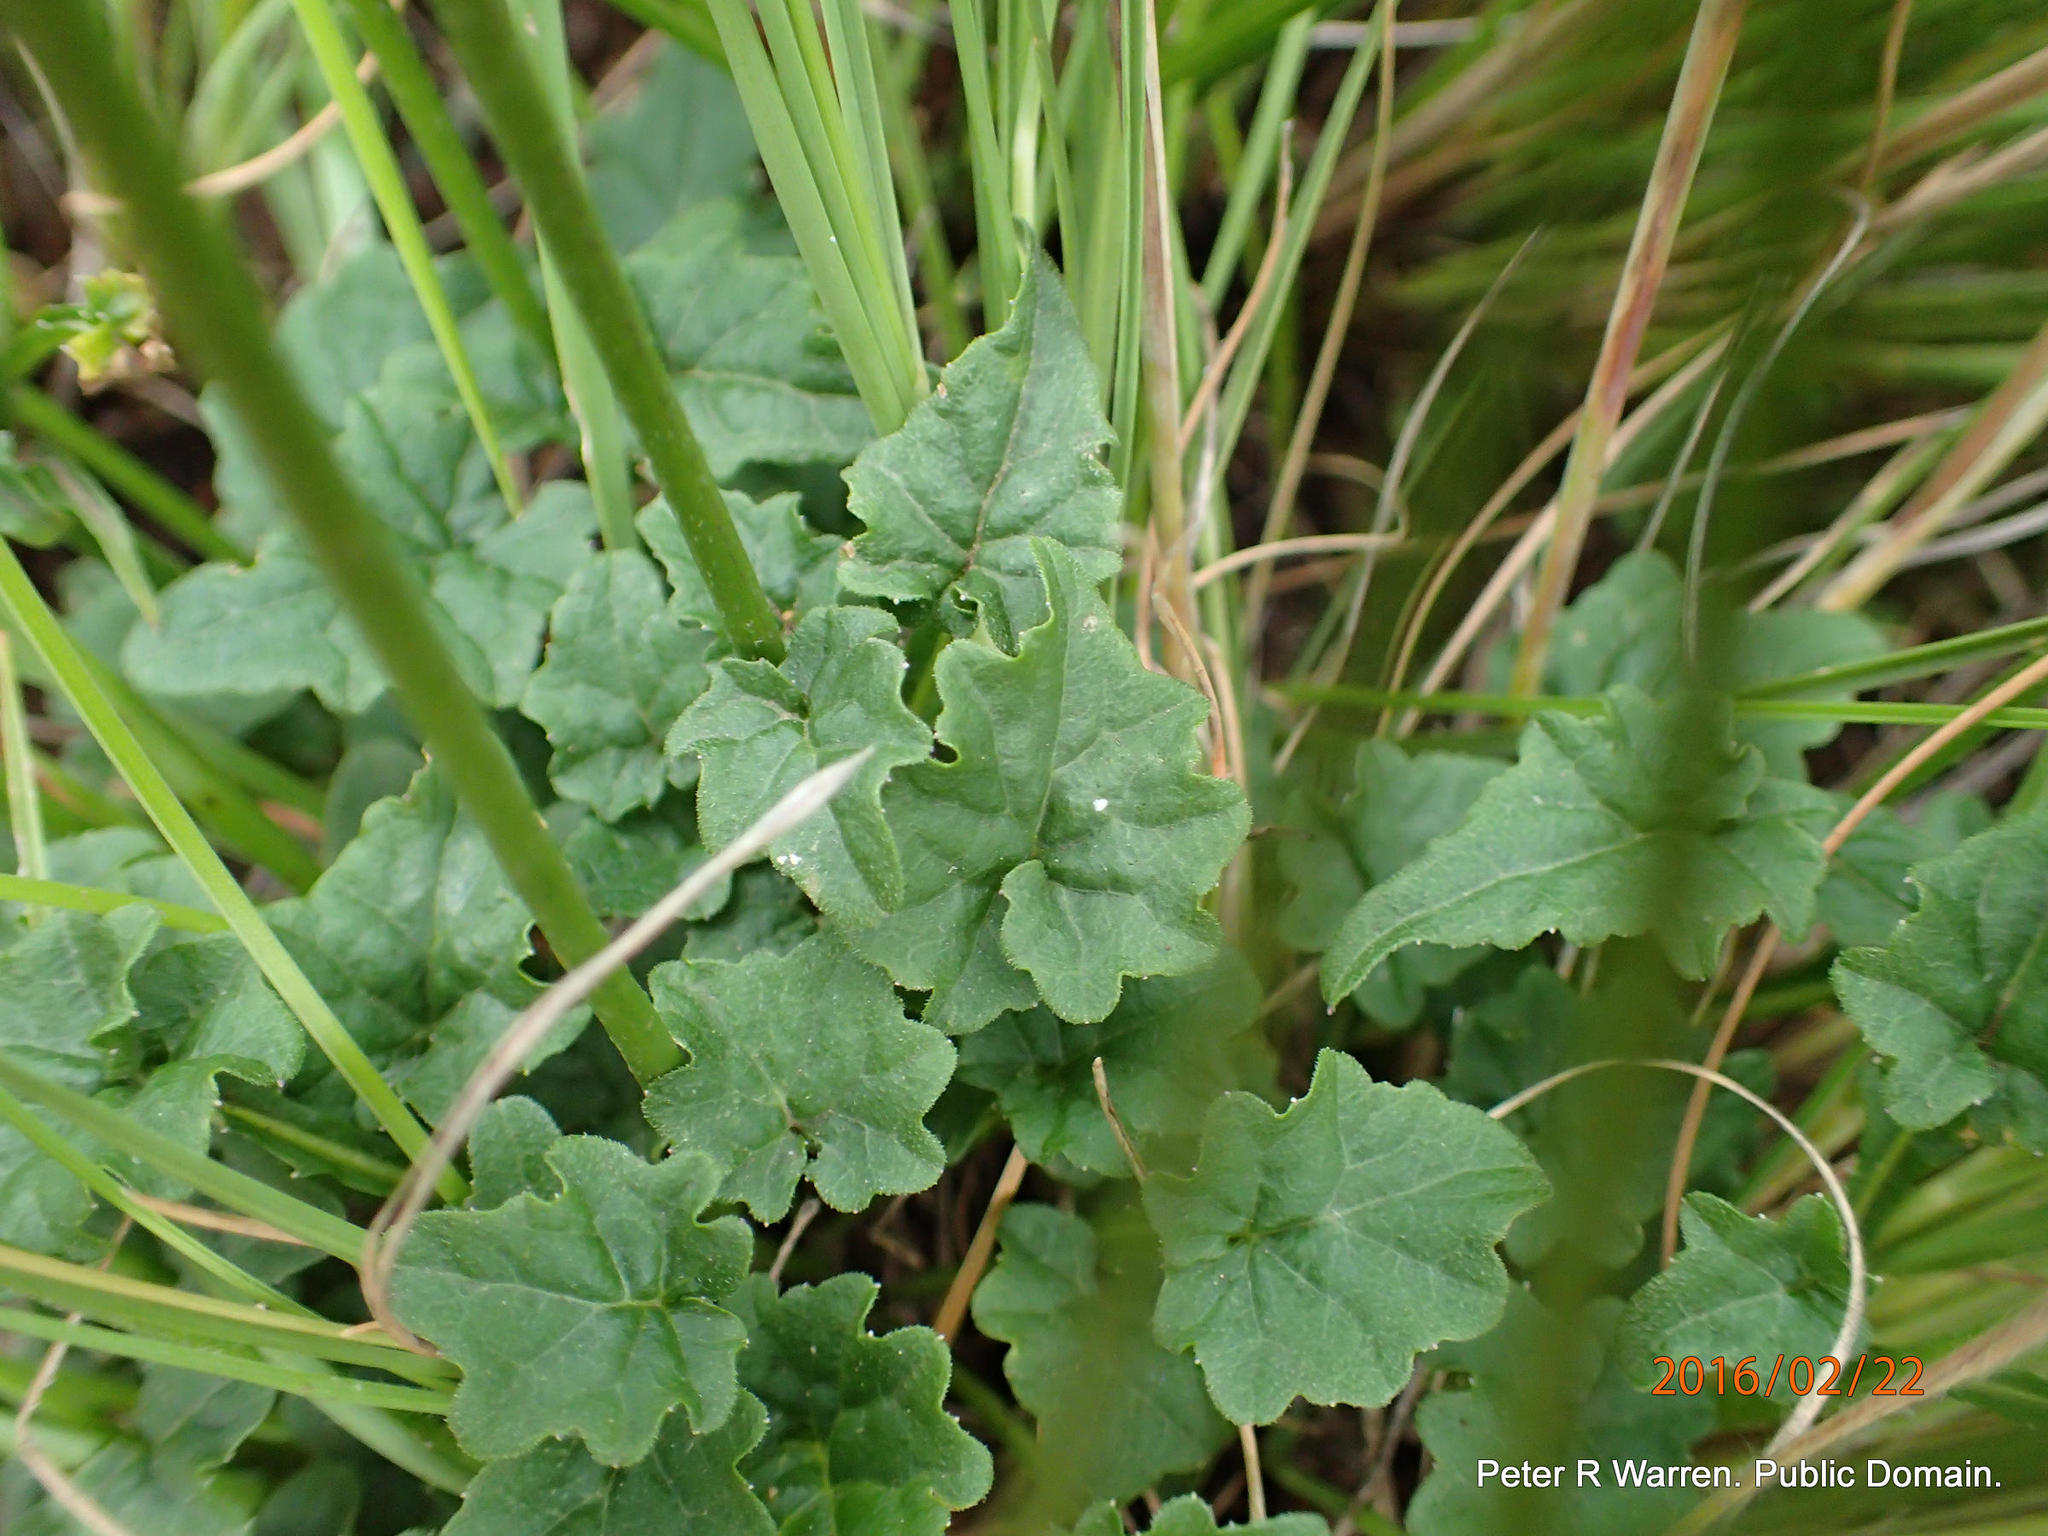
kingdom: Plantae
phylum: Tracheophyta
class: Magnoliopsida
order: Asterales
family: Campanulaceae
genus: Lobelia
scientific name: Lobelia preslii
